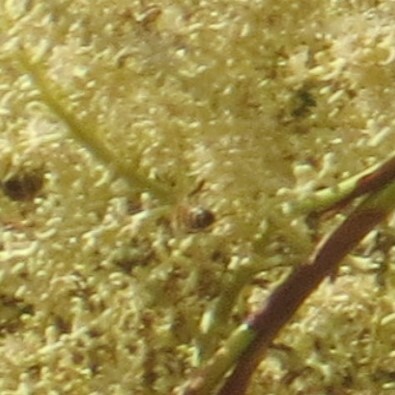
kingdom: Animalia
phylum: Arthropoda
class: Insecta
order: Hymenoptera
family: Apidae
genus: Apis
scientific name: Apis mellifera
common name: Honey bee
